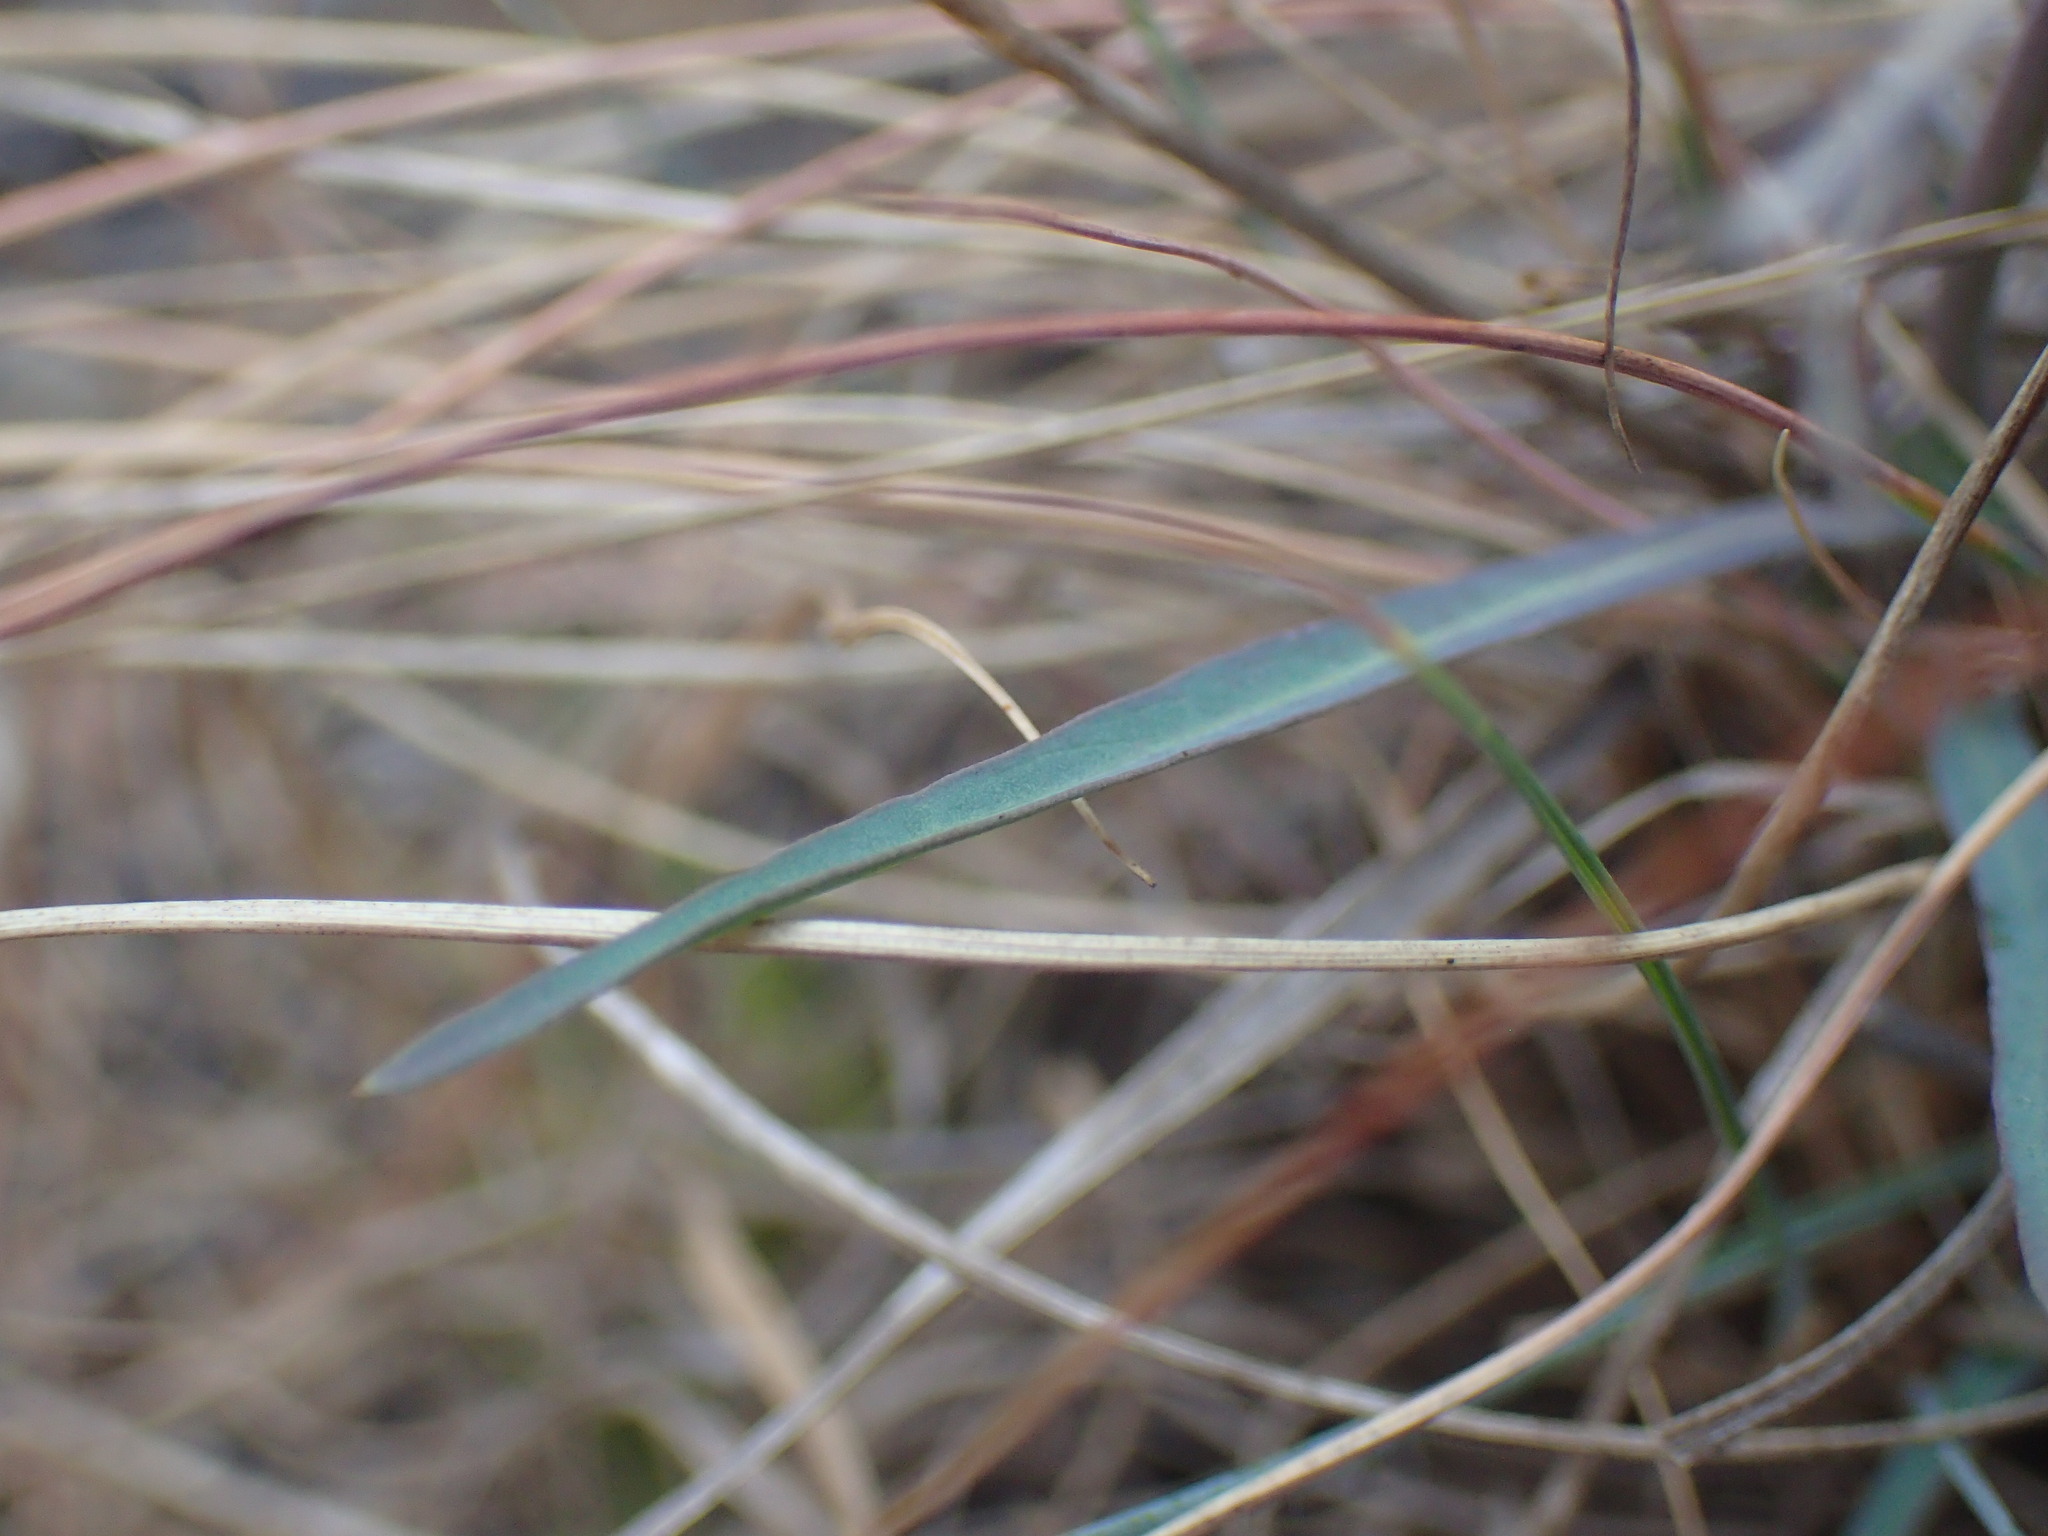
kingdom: Plantae
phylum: Tracheophyta
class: Magnoliopsida
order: Asterales
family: Asteraceae
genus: Lactuca
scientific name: Lactuca inermis
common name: Wild lettuce
